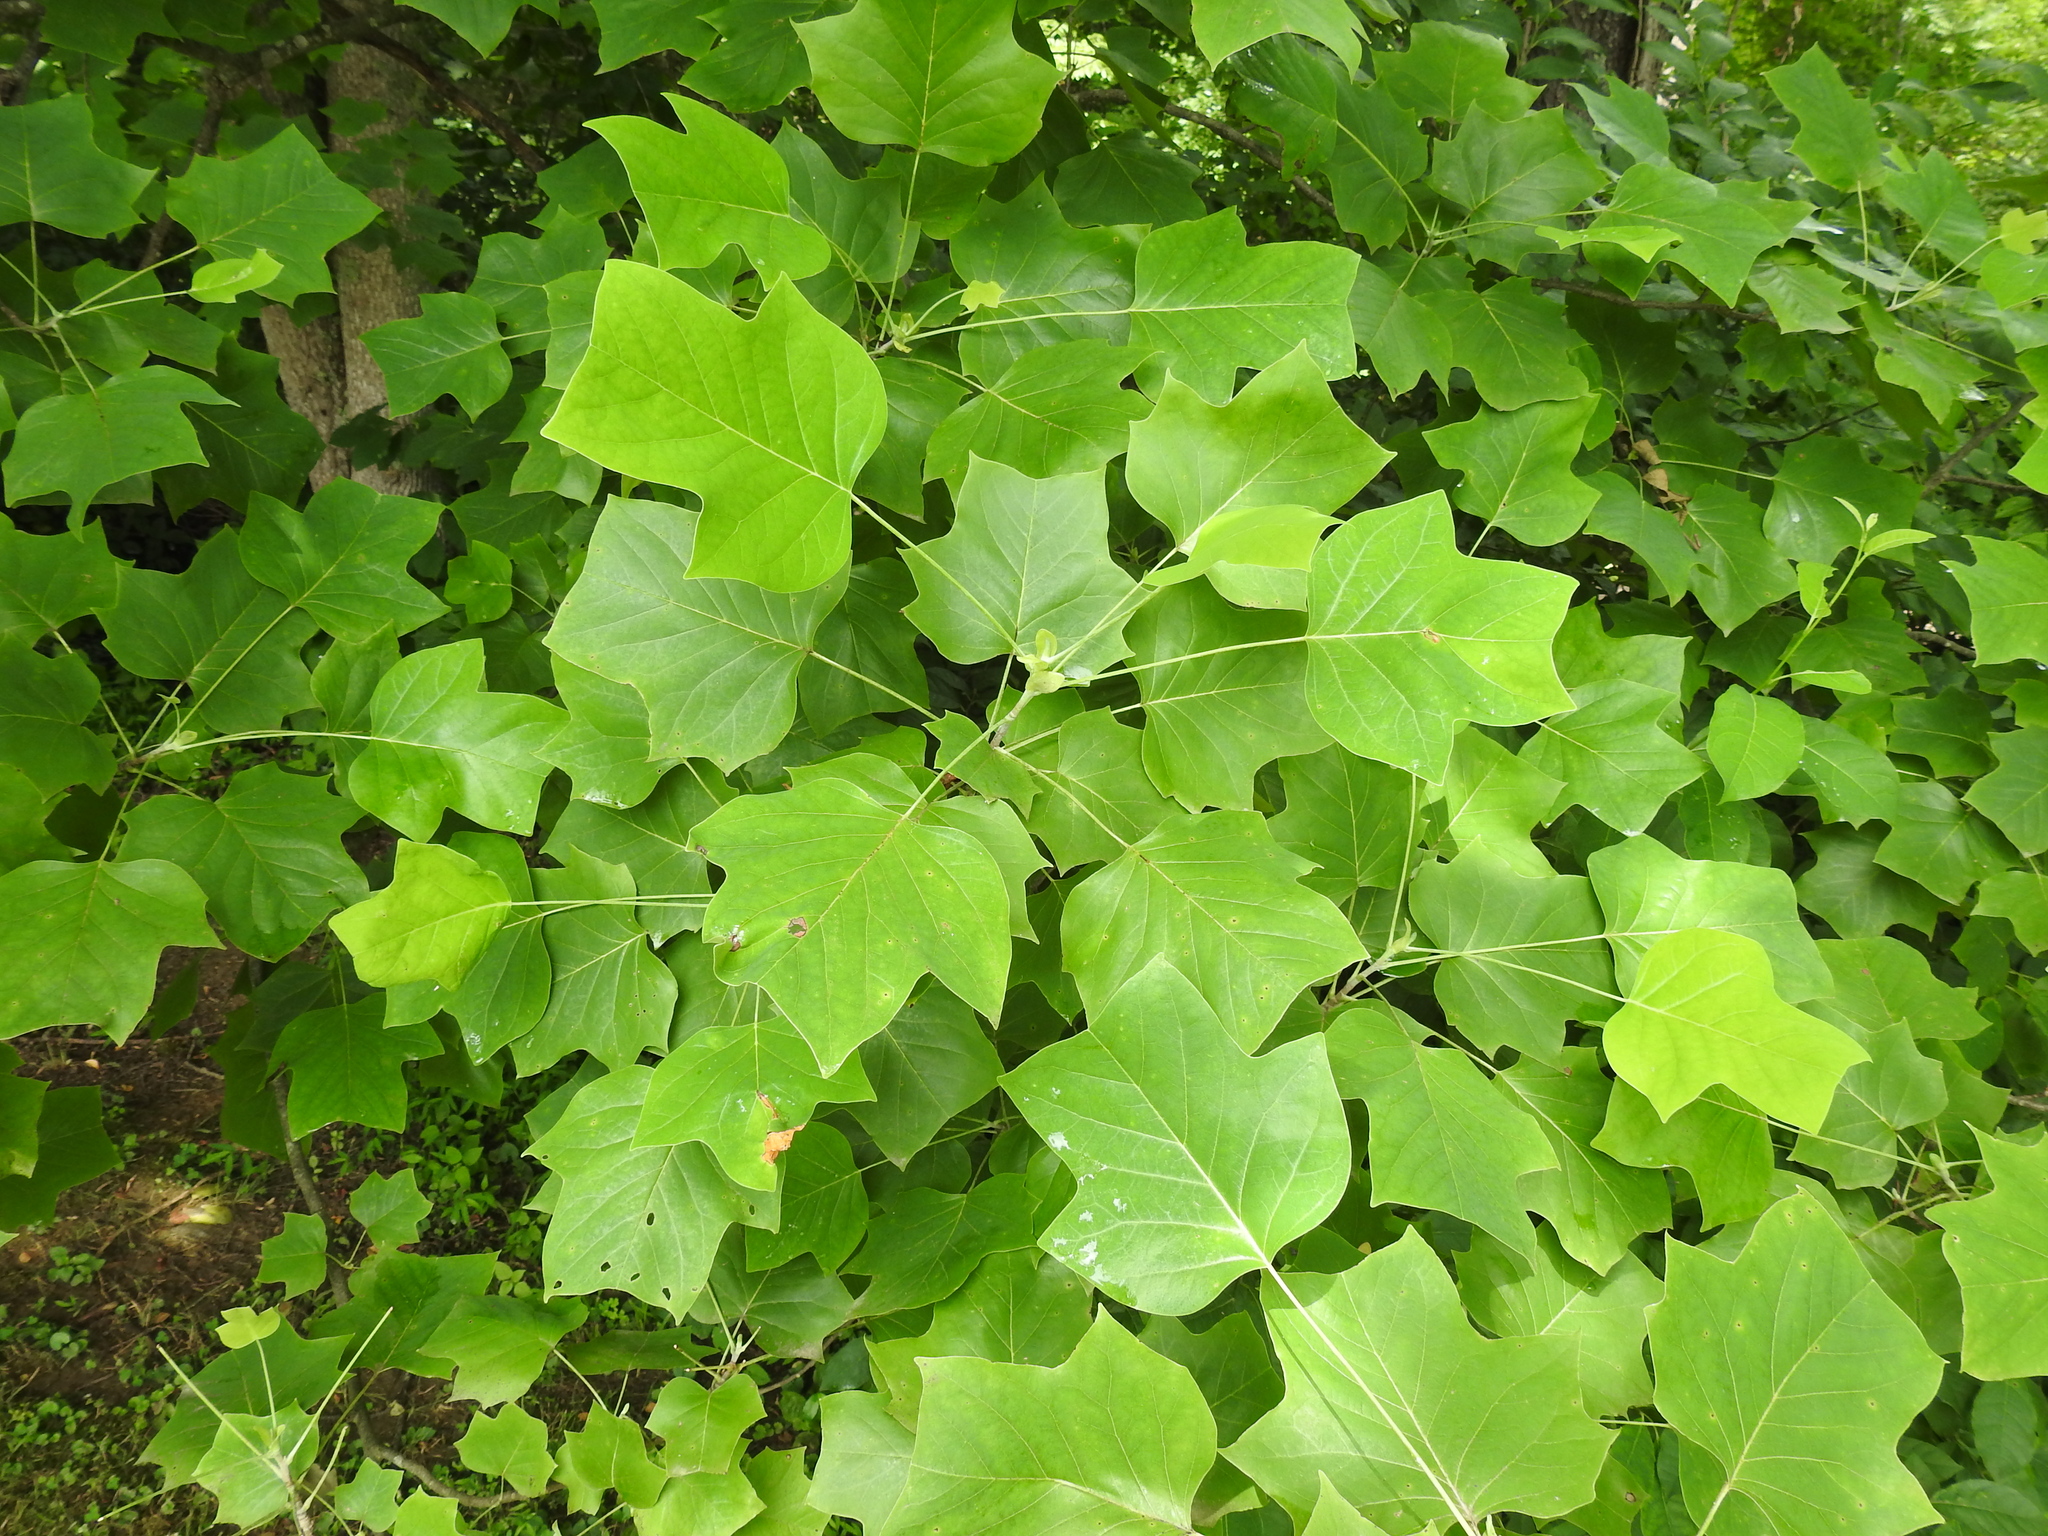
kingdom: Plantae
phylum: Tracheophyta
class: Magnoliopsida
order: Magnoliales
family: Magnoliaceae
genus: Liriodendron
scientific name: Liriodendron tulipifera
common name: Tulip tree
